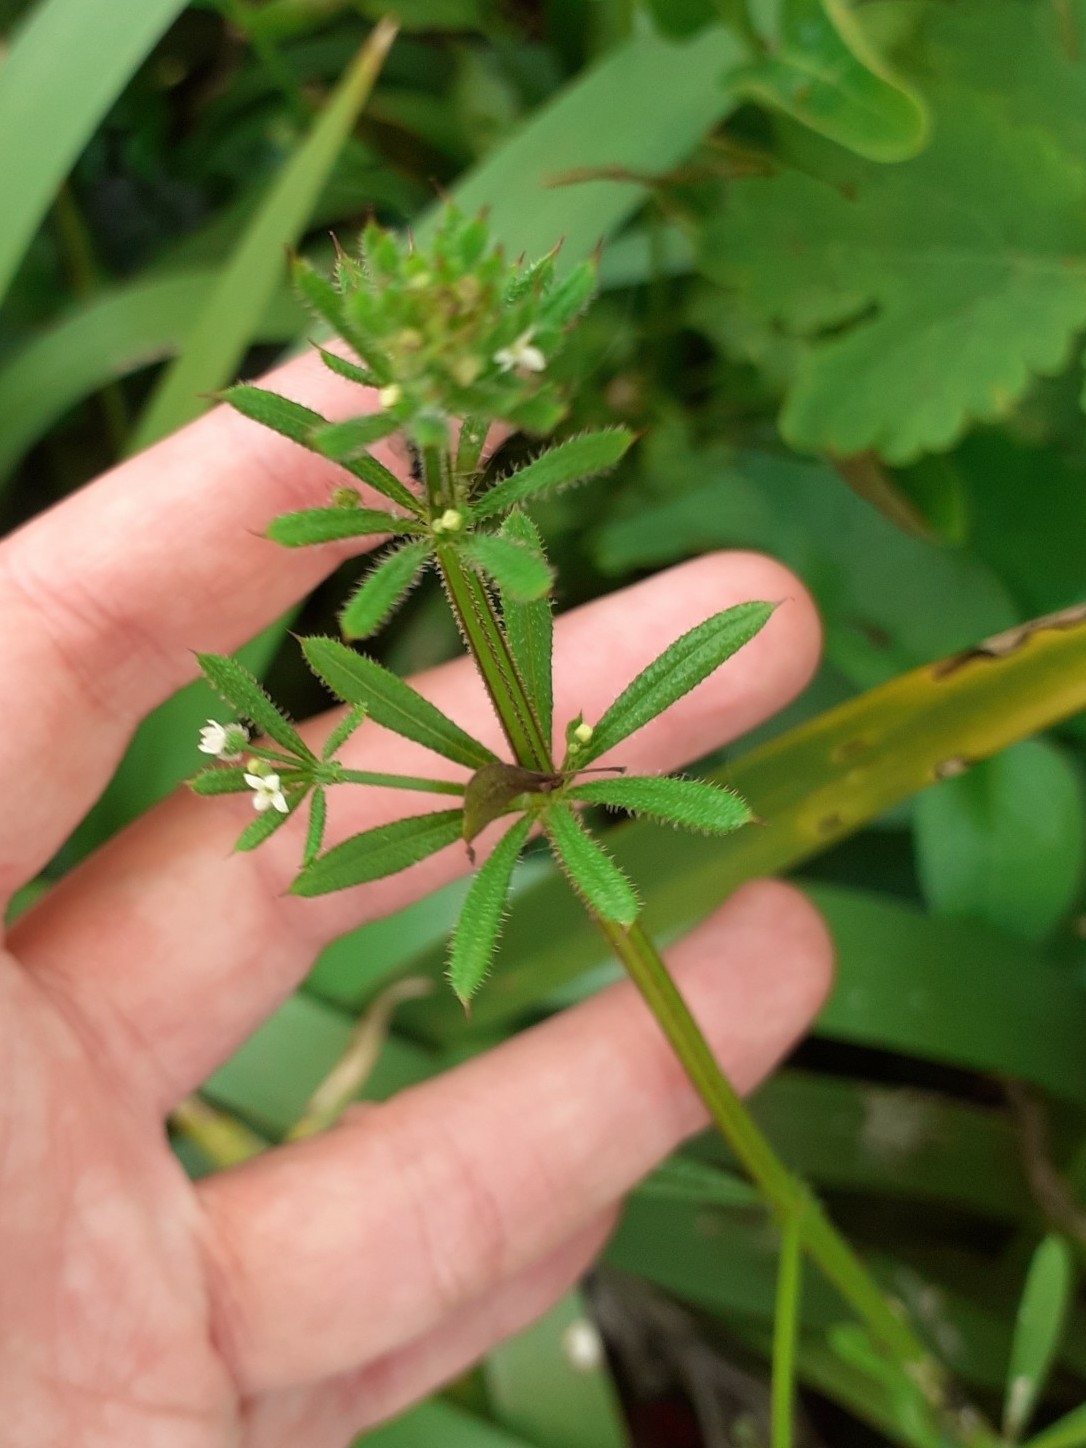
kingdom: Plantae
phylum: Tracheophyta
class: Magnoliopsida
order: Gentianales
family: Rubiaceae
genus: Galium
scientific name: Galium aparine
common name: Cleavers
